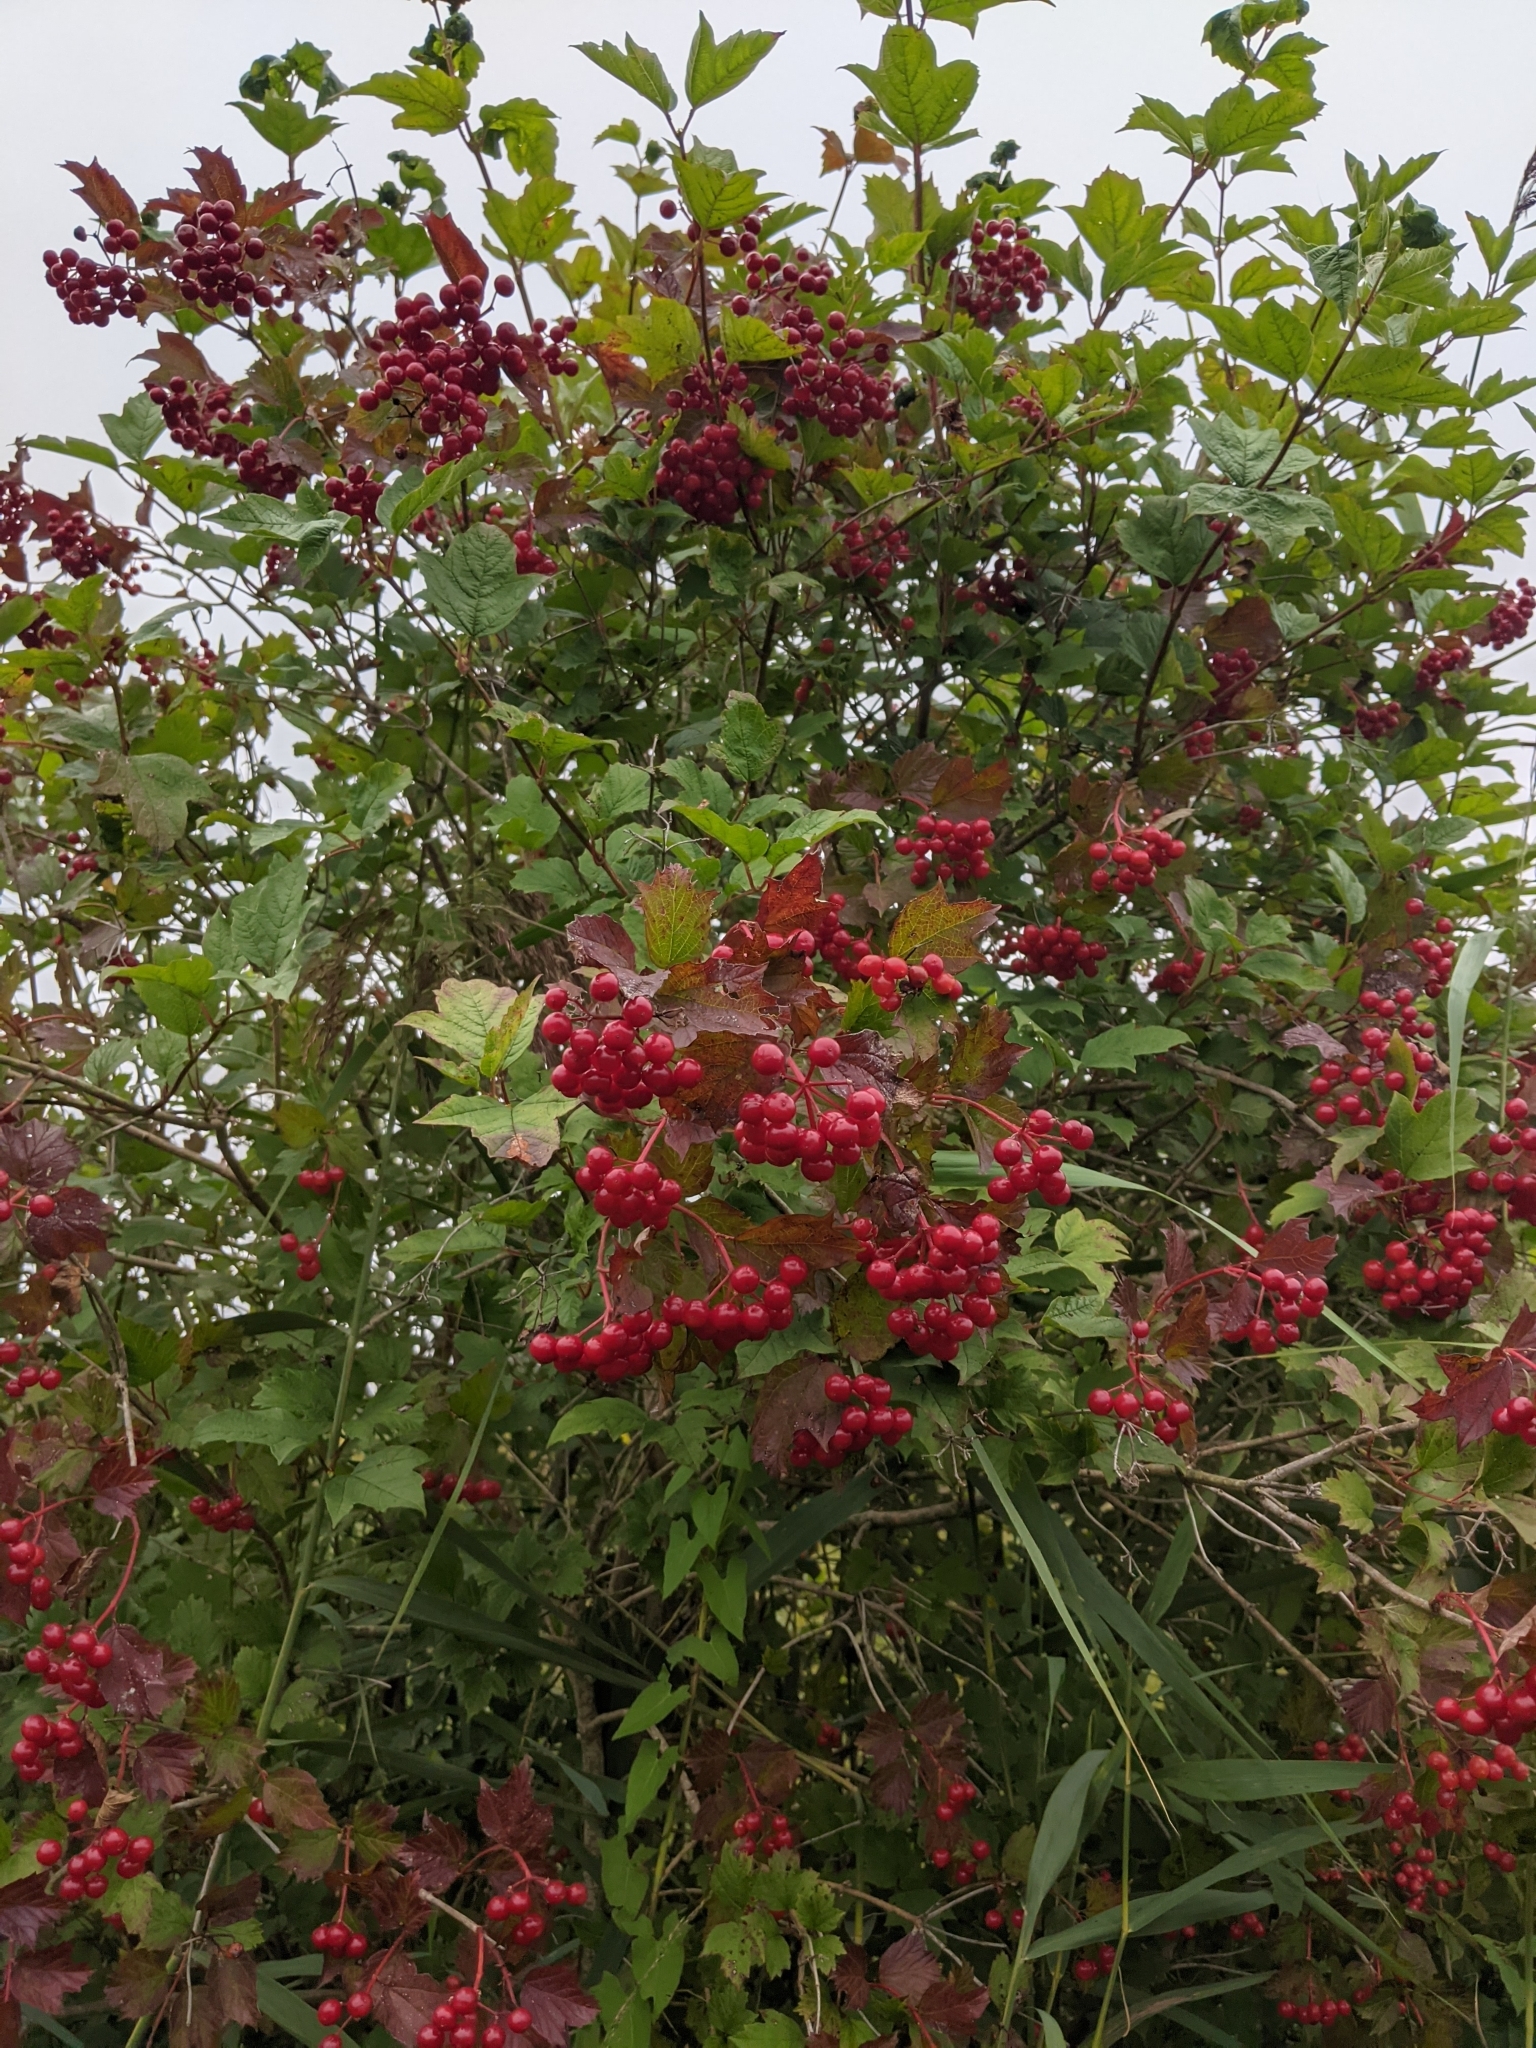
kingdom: Plantae
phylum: Tracheophyta
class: Magnoliopsida
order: Dipsacales
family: Viburnaceae
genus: Viburnum
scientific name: Viburnum opulus
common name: Guelder-rose
